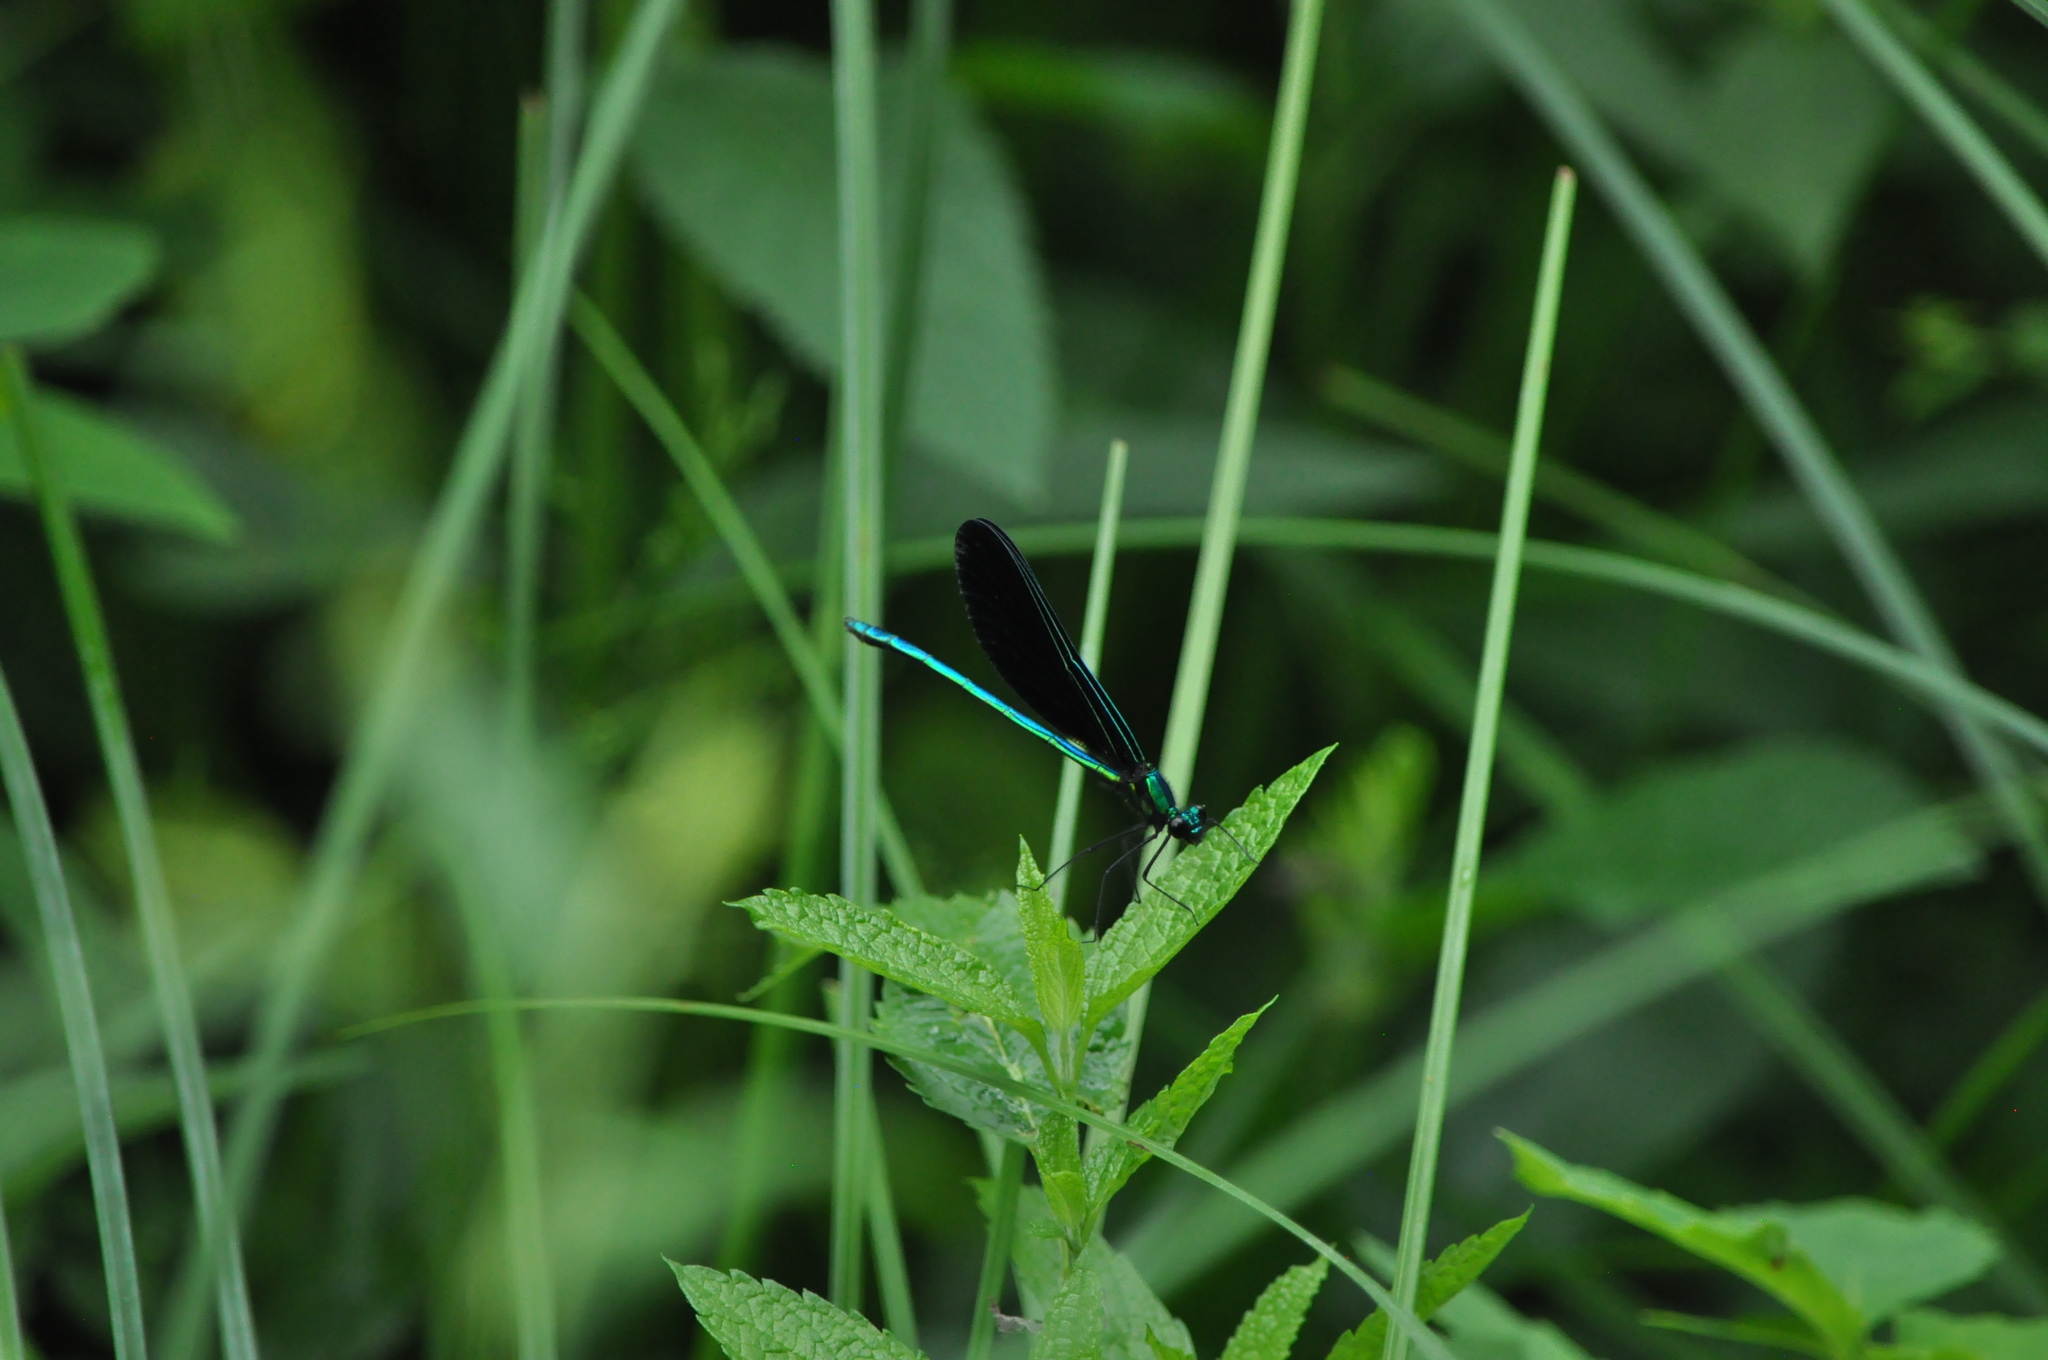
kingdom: Animalia
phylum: Arthropoda
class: Insecta
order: Odonata
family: Calopterygidae
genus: Calopteryx
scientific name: Calopteryx maculata
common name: Ebony jewelwing
